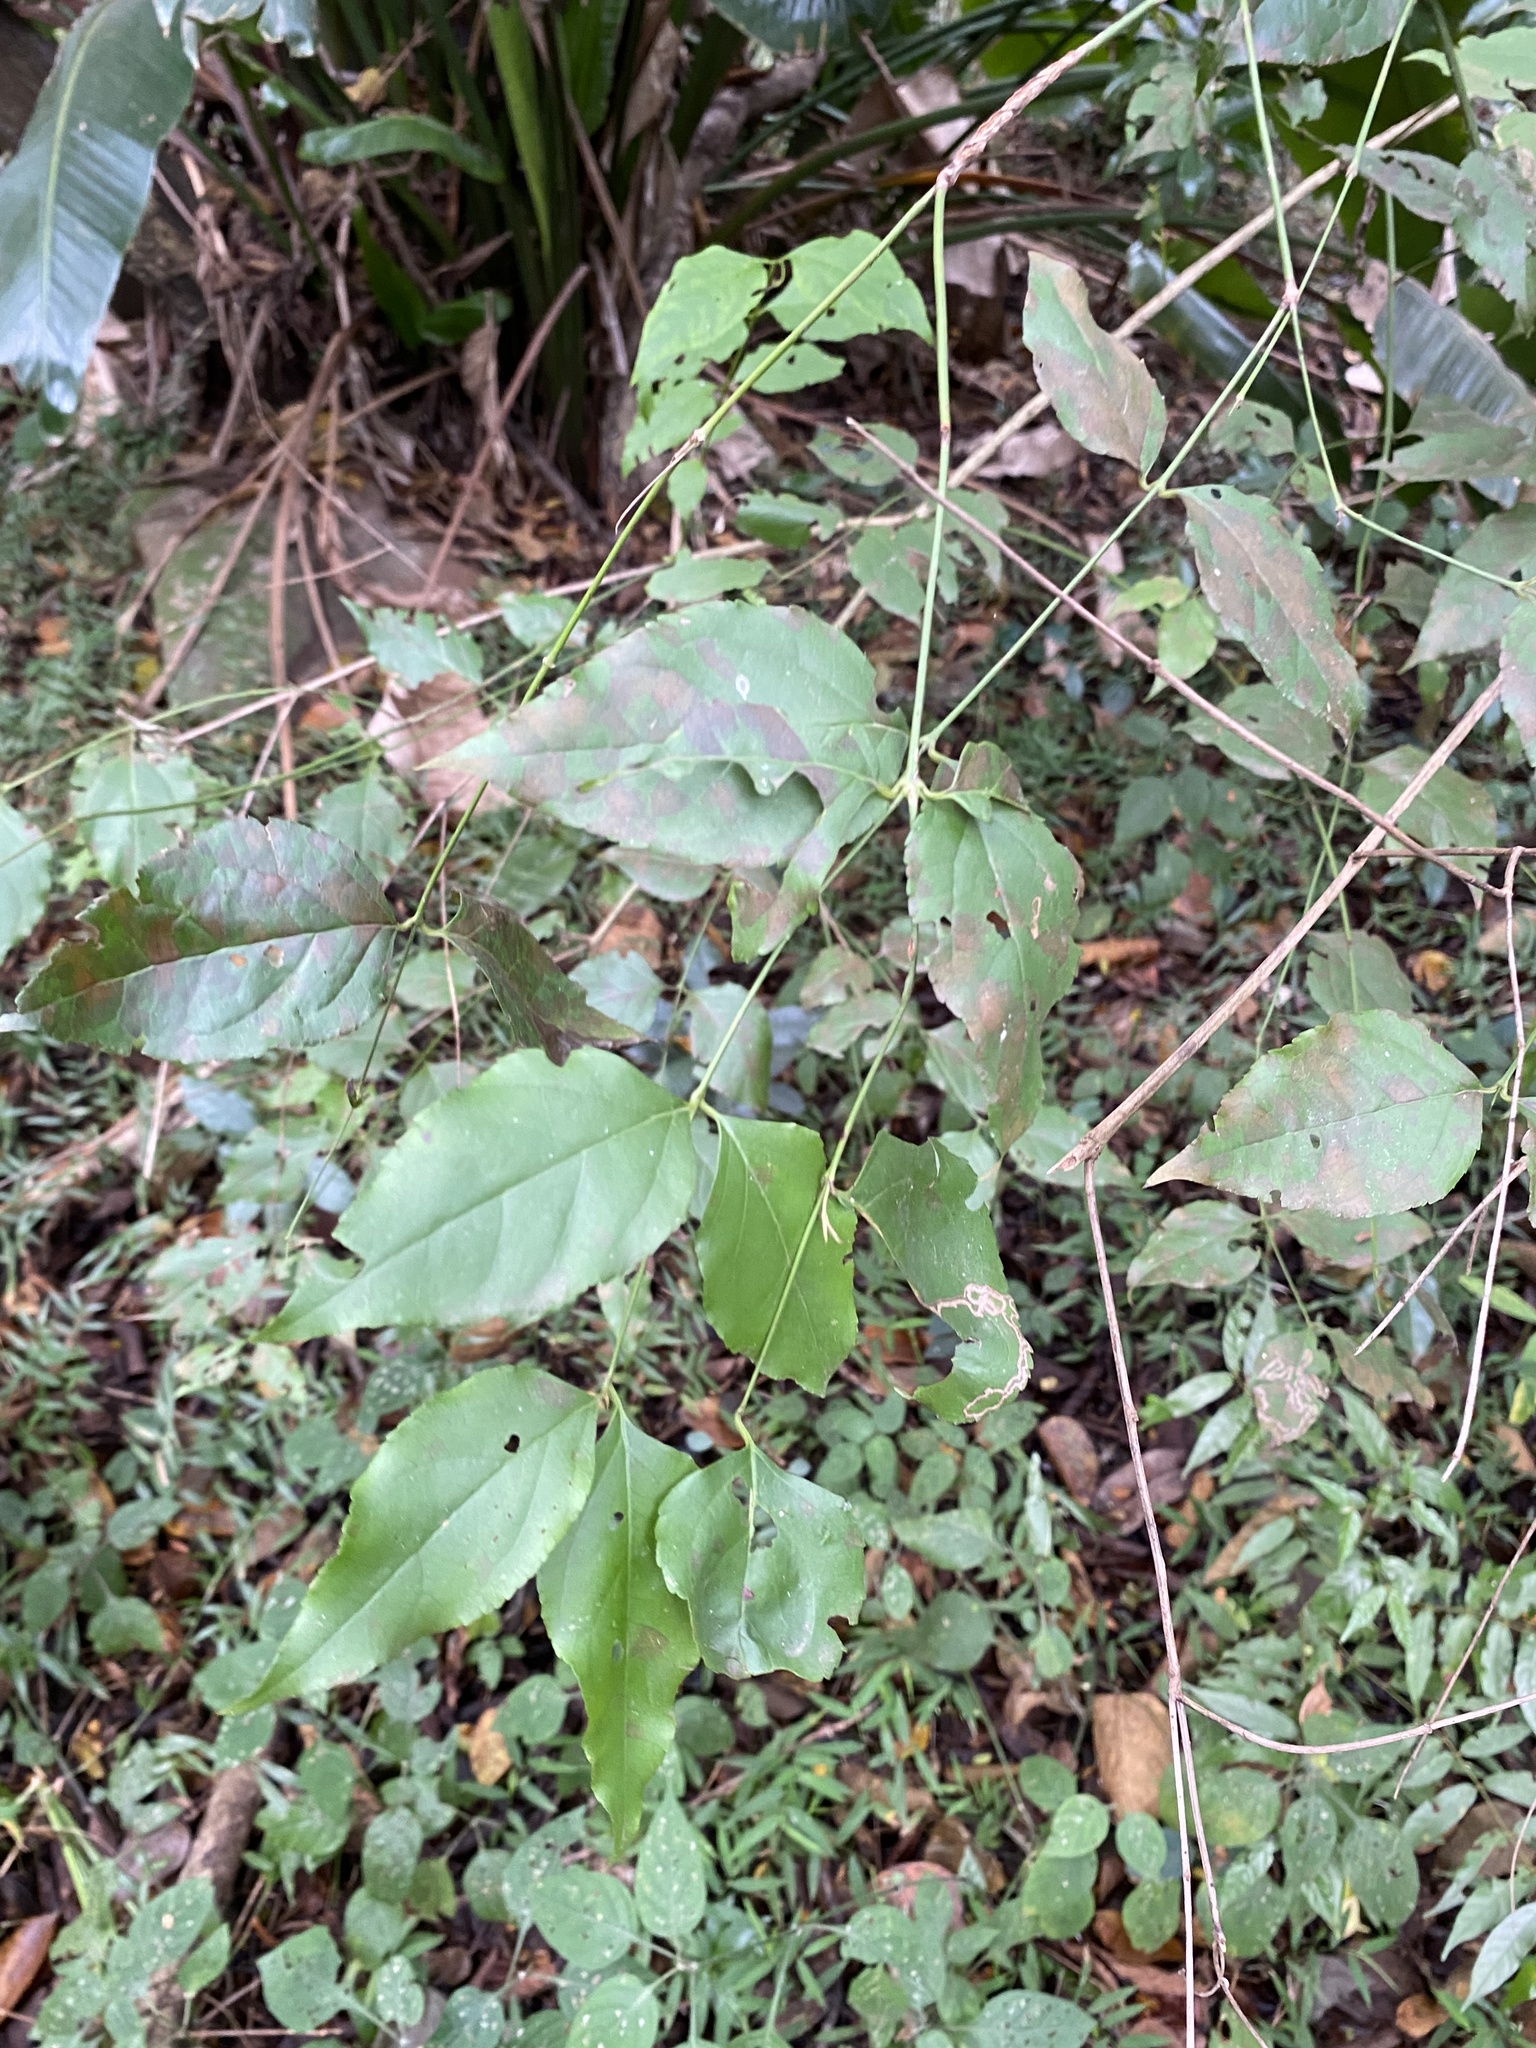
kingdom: Plantae
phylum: Tracheophyta
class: Magnoliopsida
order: Lamiales
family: Stilbaceae
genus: Halleria
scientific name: Halleria lucida
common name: Tree fuschia
